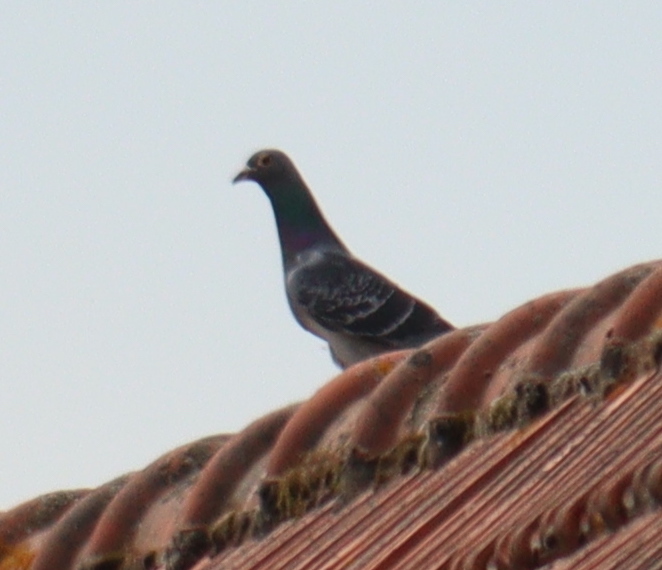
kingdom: Animalia
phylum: Chordata
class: Aves
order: Columbiformes
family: Columbidae
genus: Columba
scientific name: Columba livia
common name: Rock pigeon
